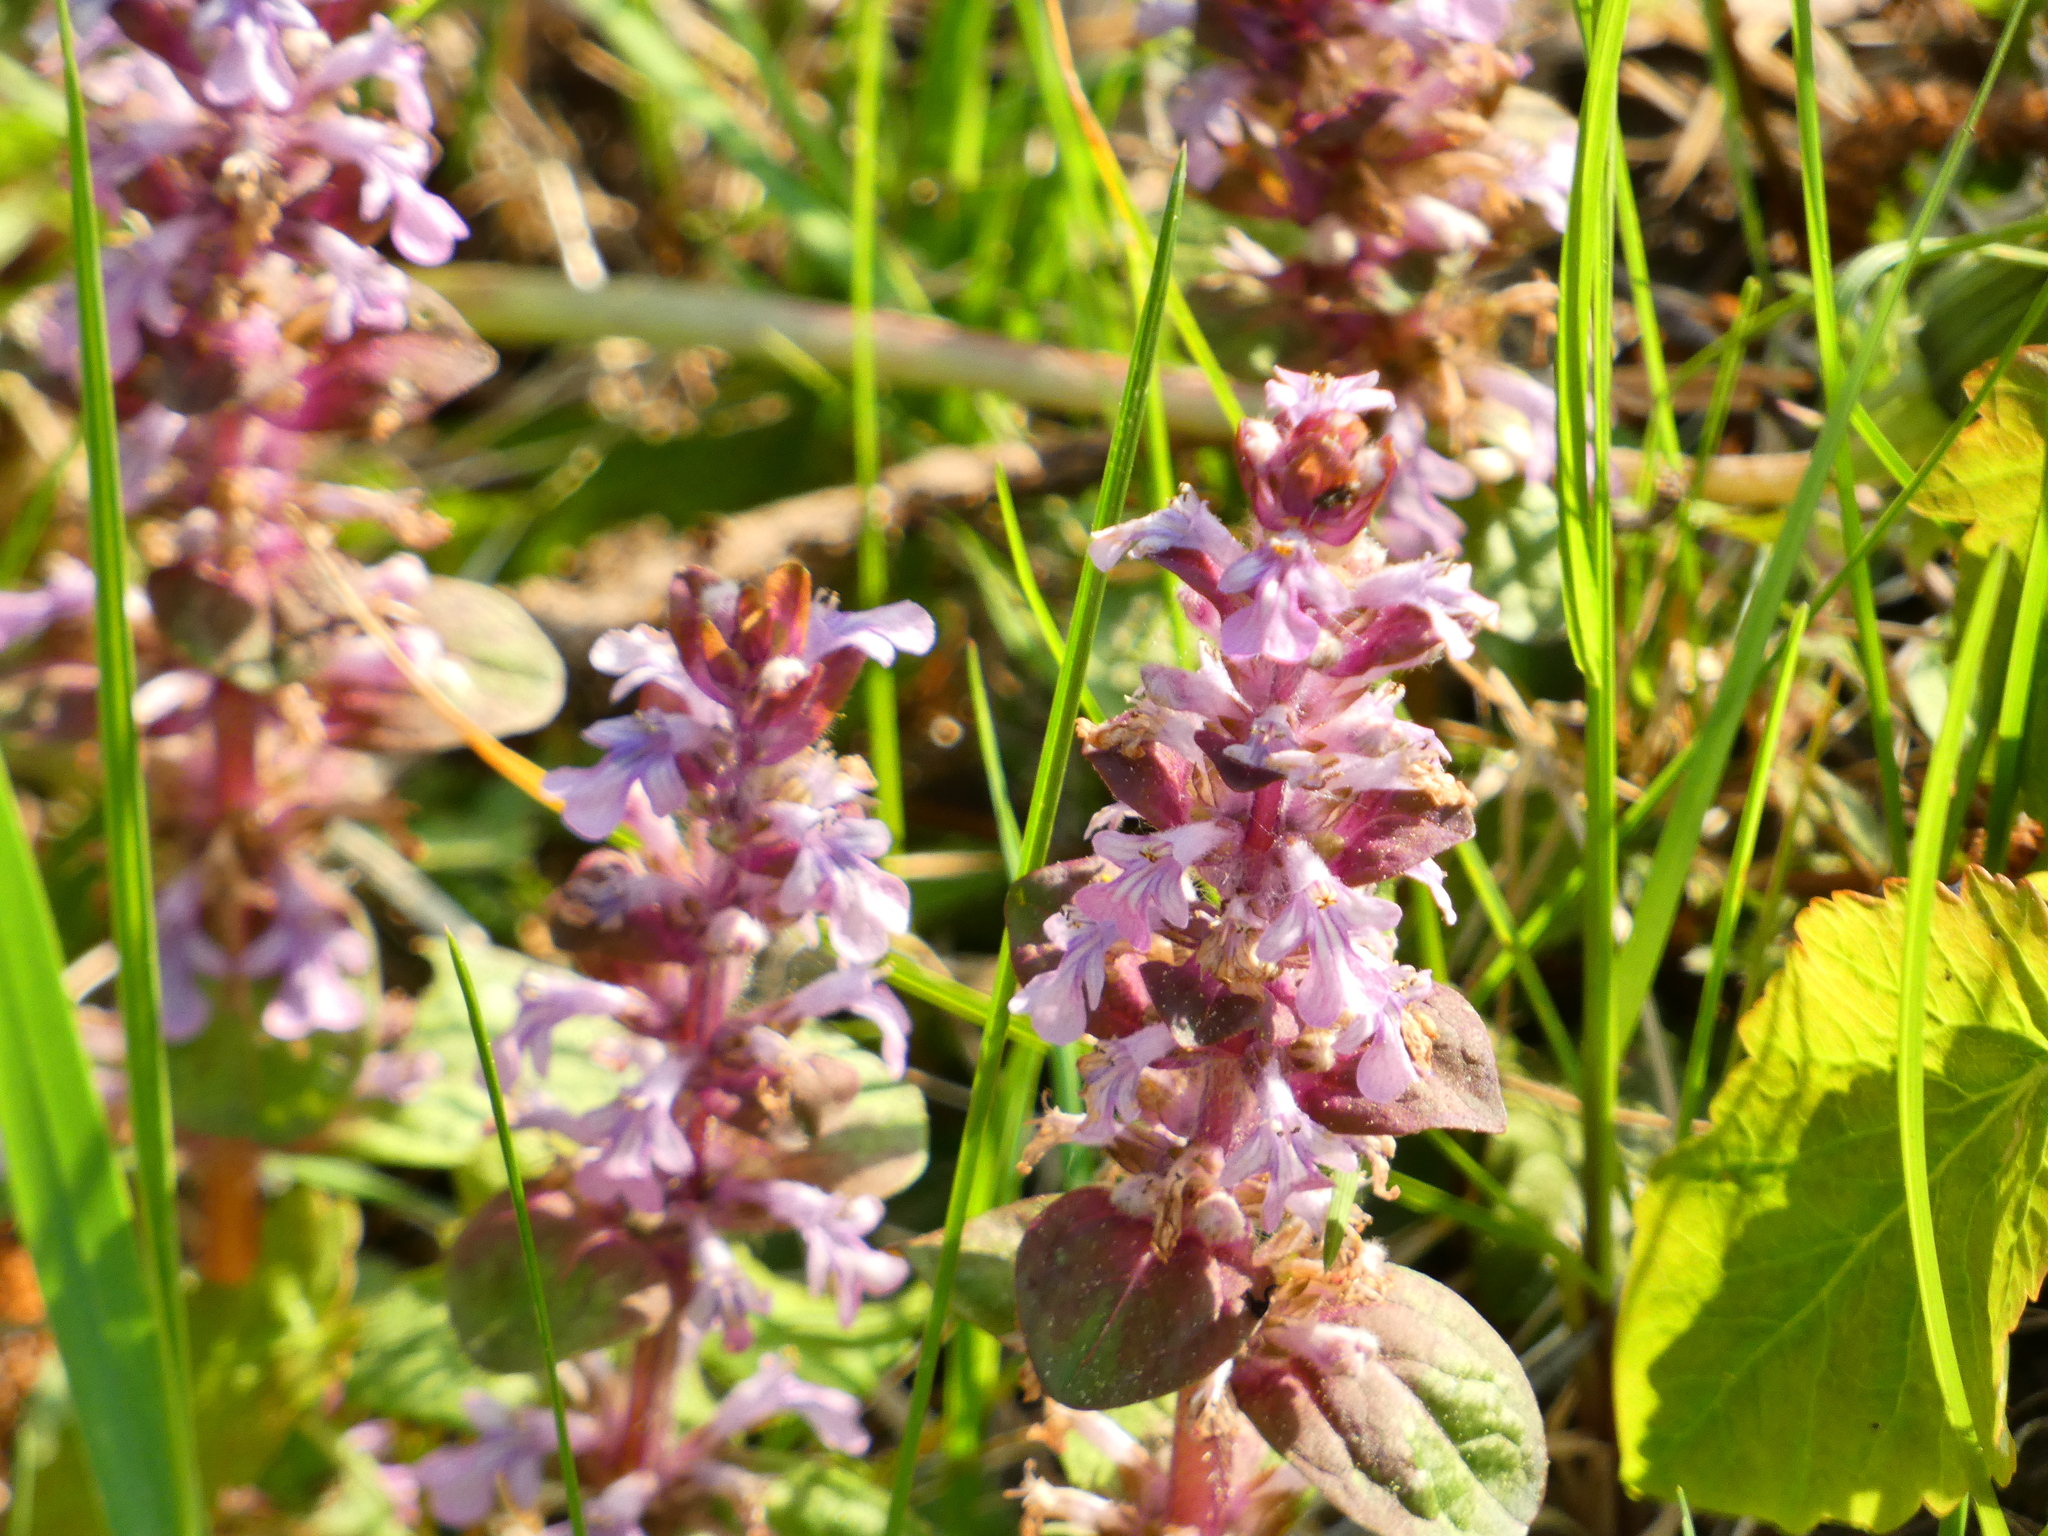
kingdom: Plantae
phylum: Tracheophyta
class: Magnoliopsida
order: Lamiales
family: Lamiaceae
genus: Ajuga
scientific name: Ajuga reptans
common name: Bugle
